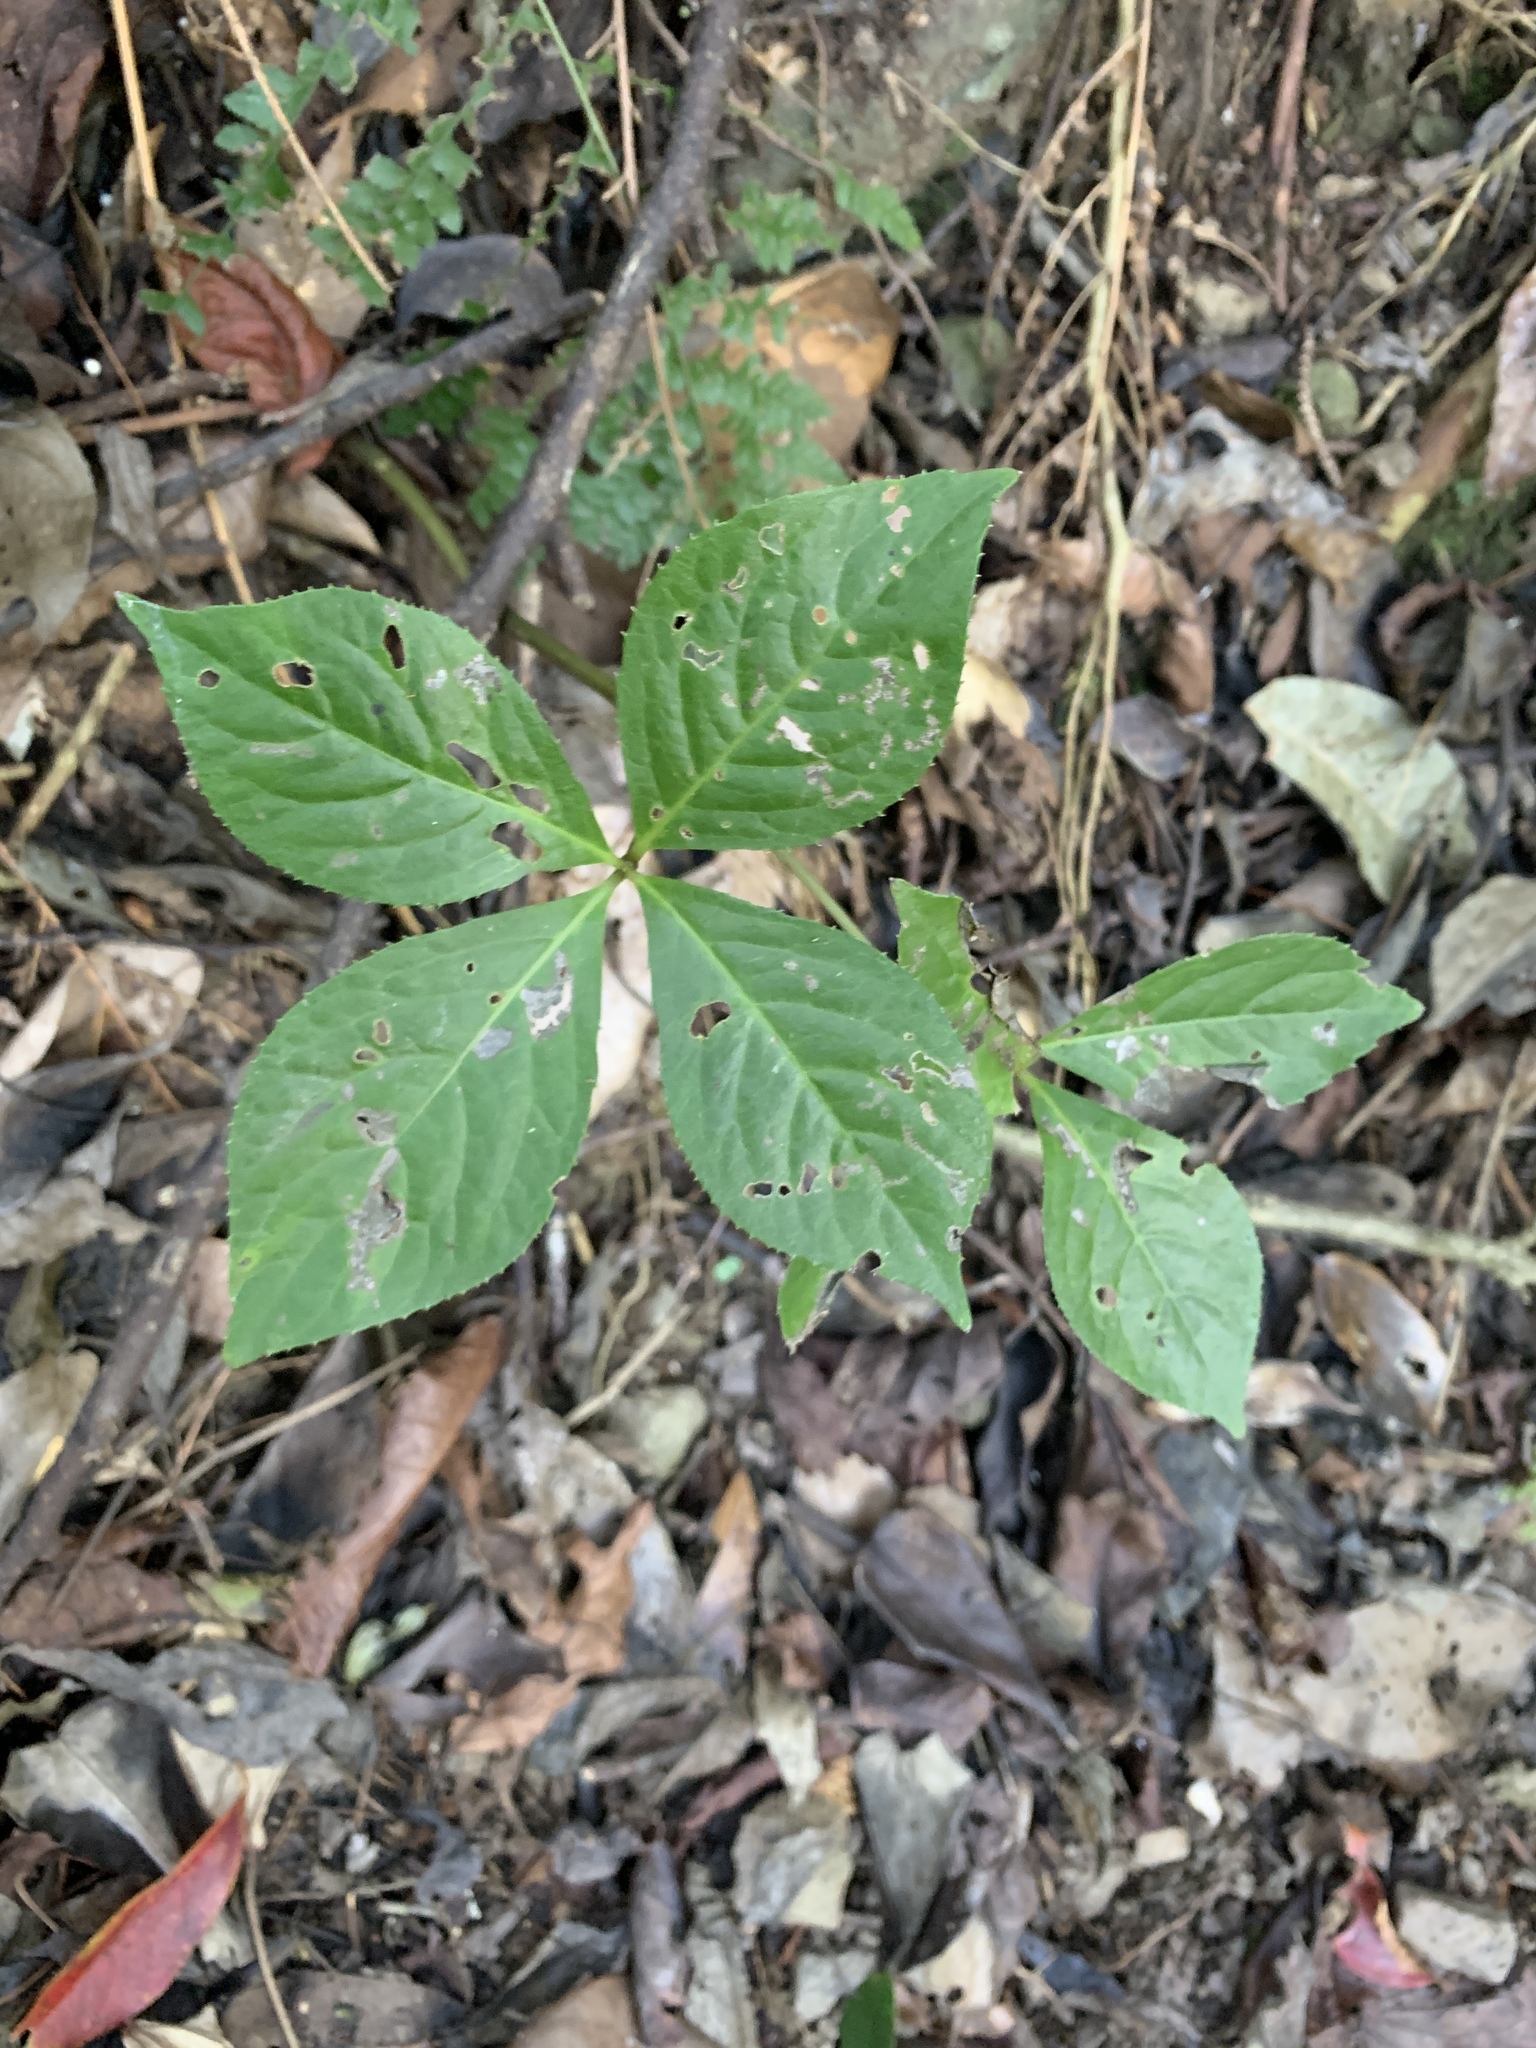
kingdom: Plantae
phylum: Tracheophyta
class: Magnoliopsida
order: Chloranthales
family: Chloranthaceae
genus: Chloranthus
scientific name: Chloranthus oldhamii
